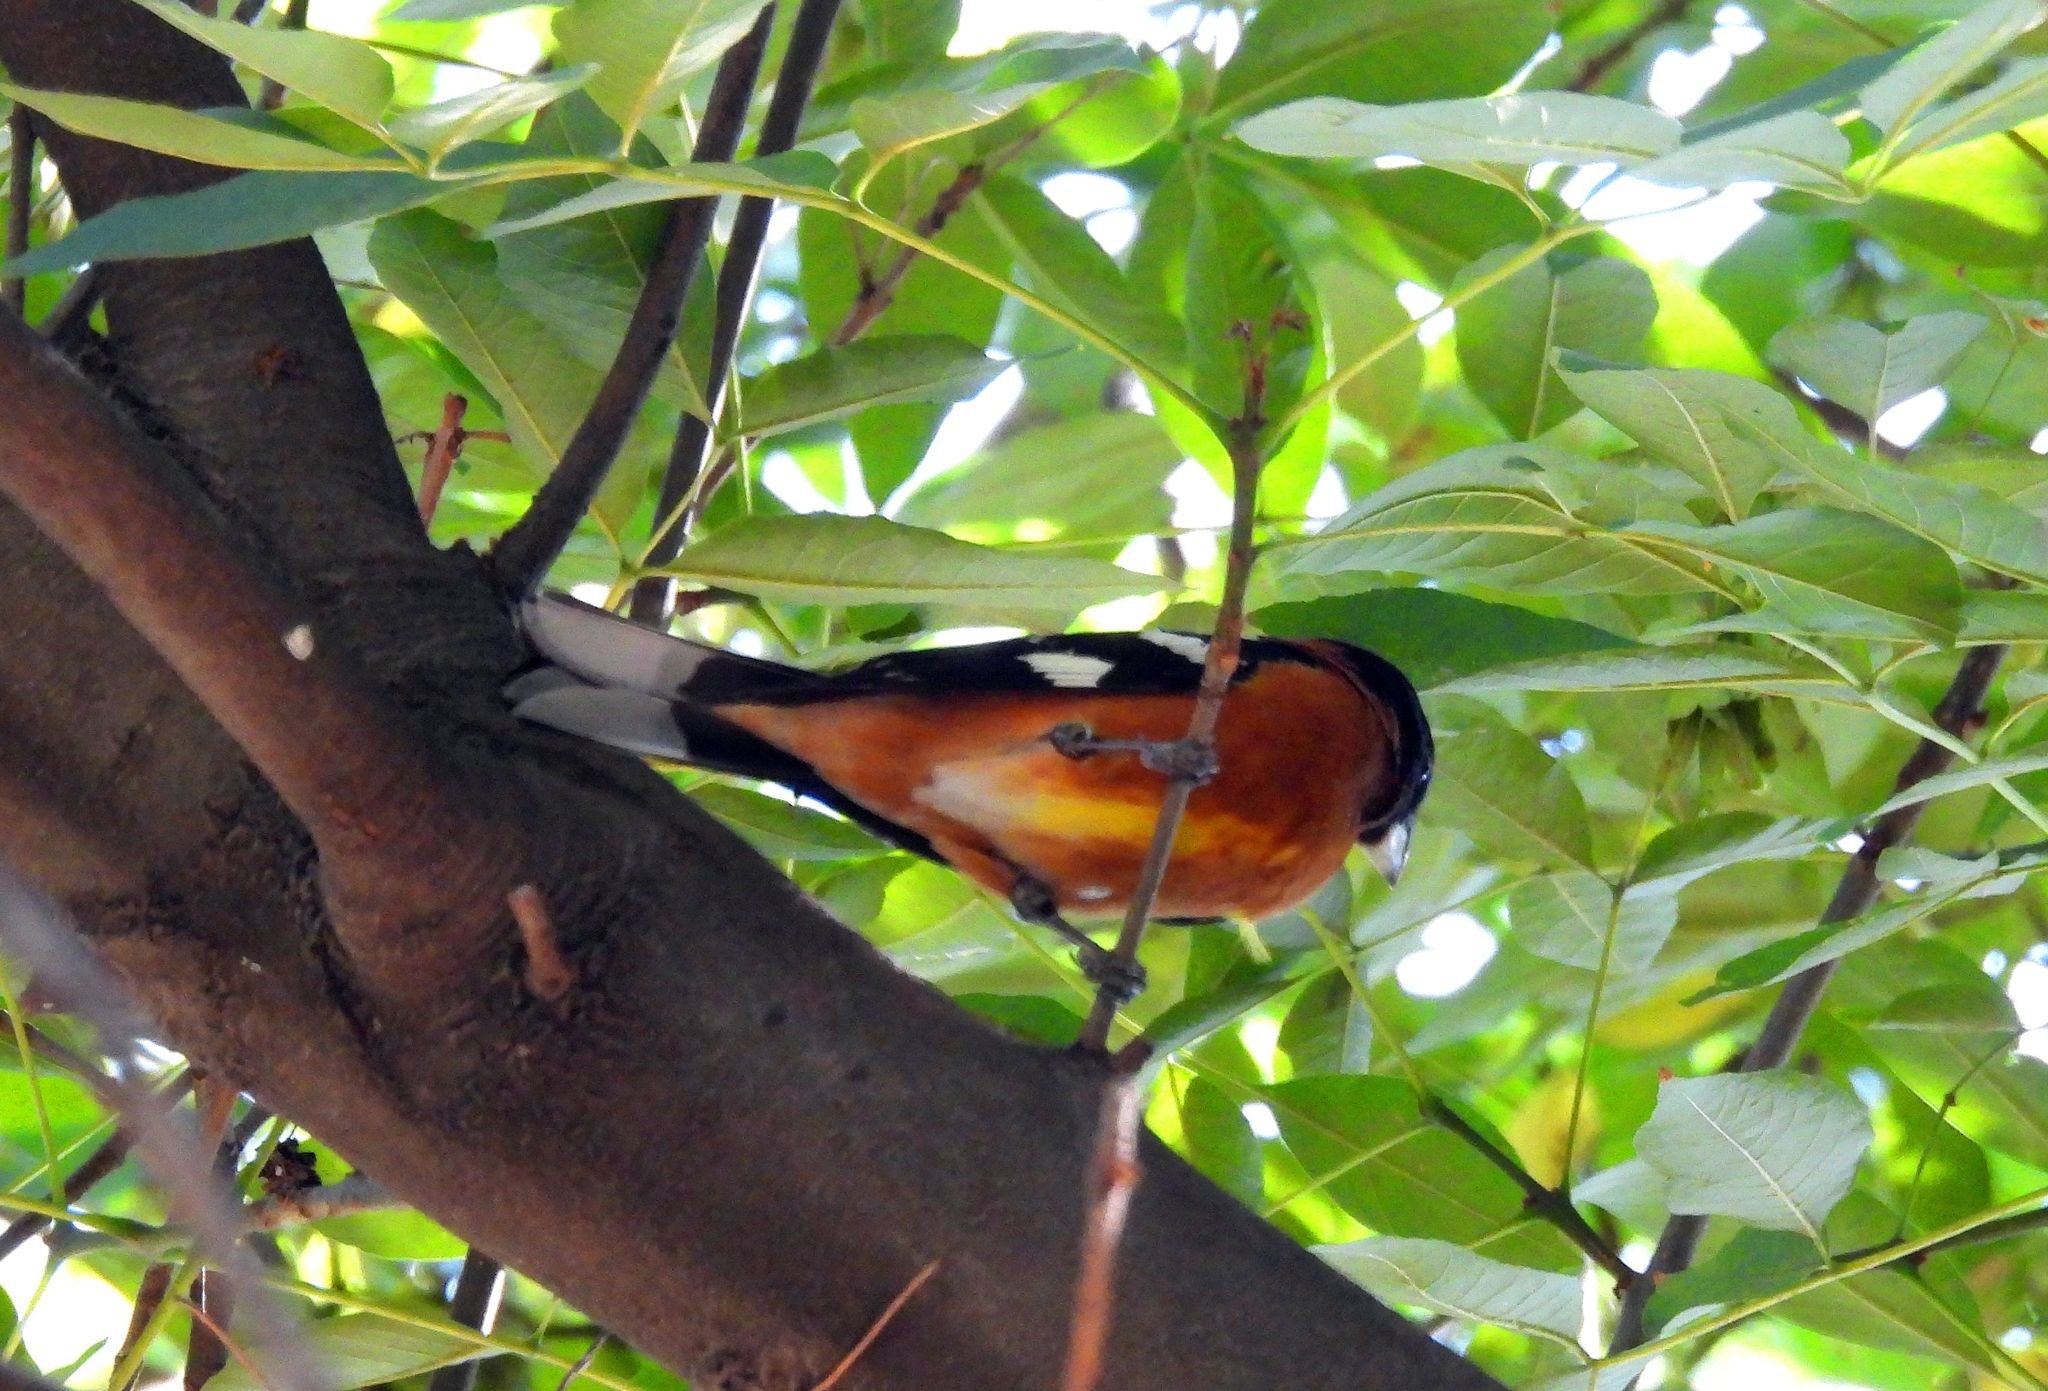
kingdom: Animalia
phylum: Chordata
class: Aves
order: Passeriformes
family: Cardinalidae
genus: Pheucticus
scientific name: Pheucticus melanocephalus
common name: Black-headed grosbeak
